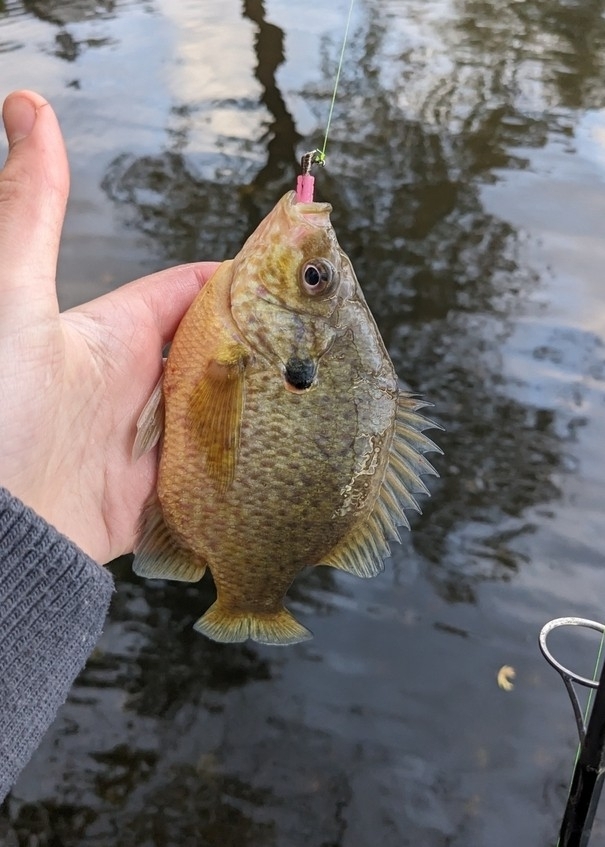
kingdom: Animalia
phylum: Chordata
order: Perciformes
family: Centrarchidae
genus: Lepomis
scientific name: Lepomis
